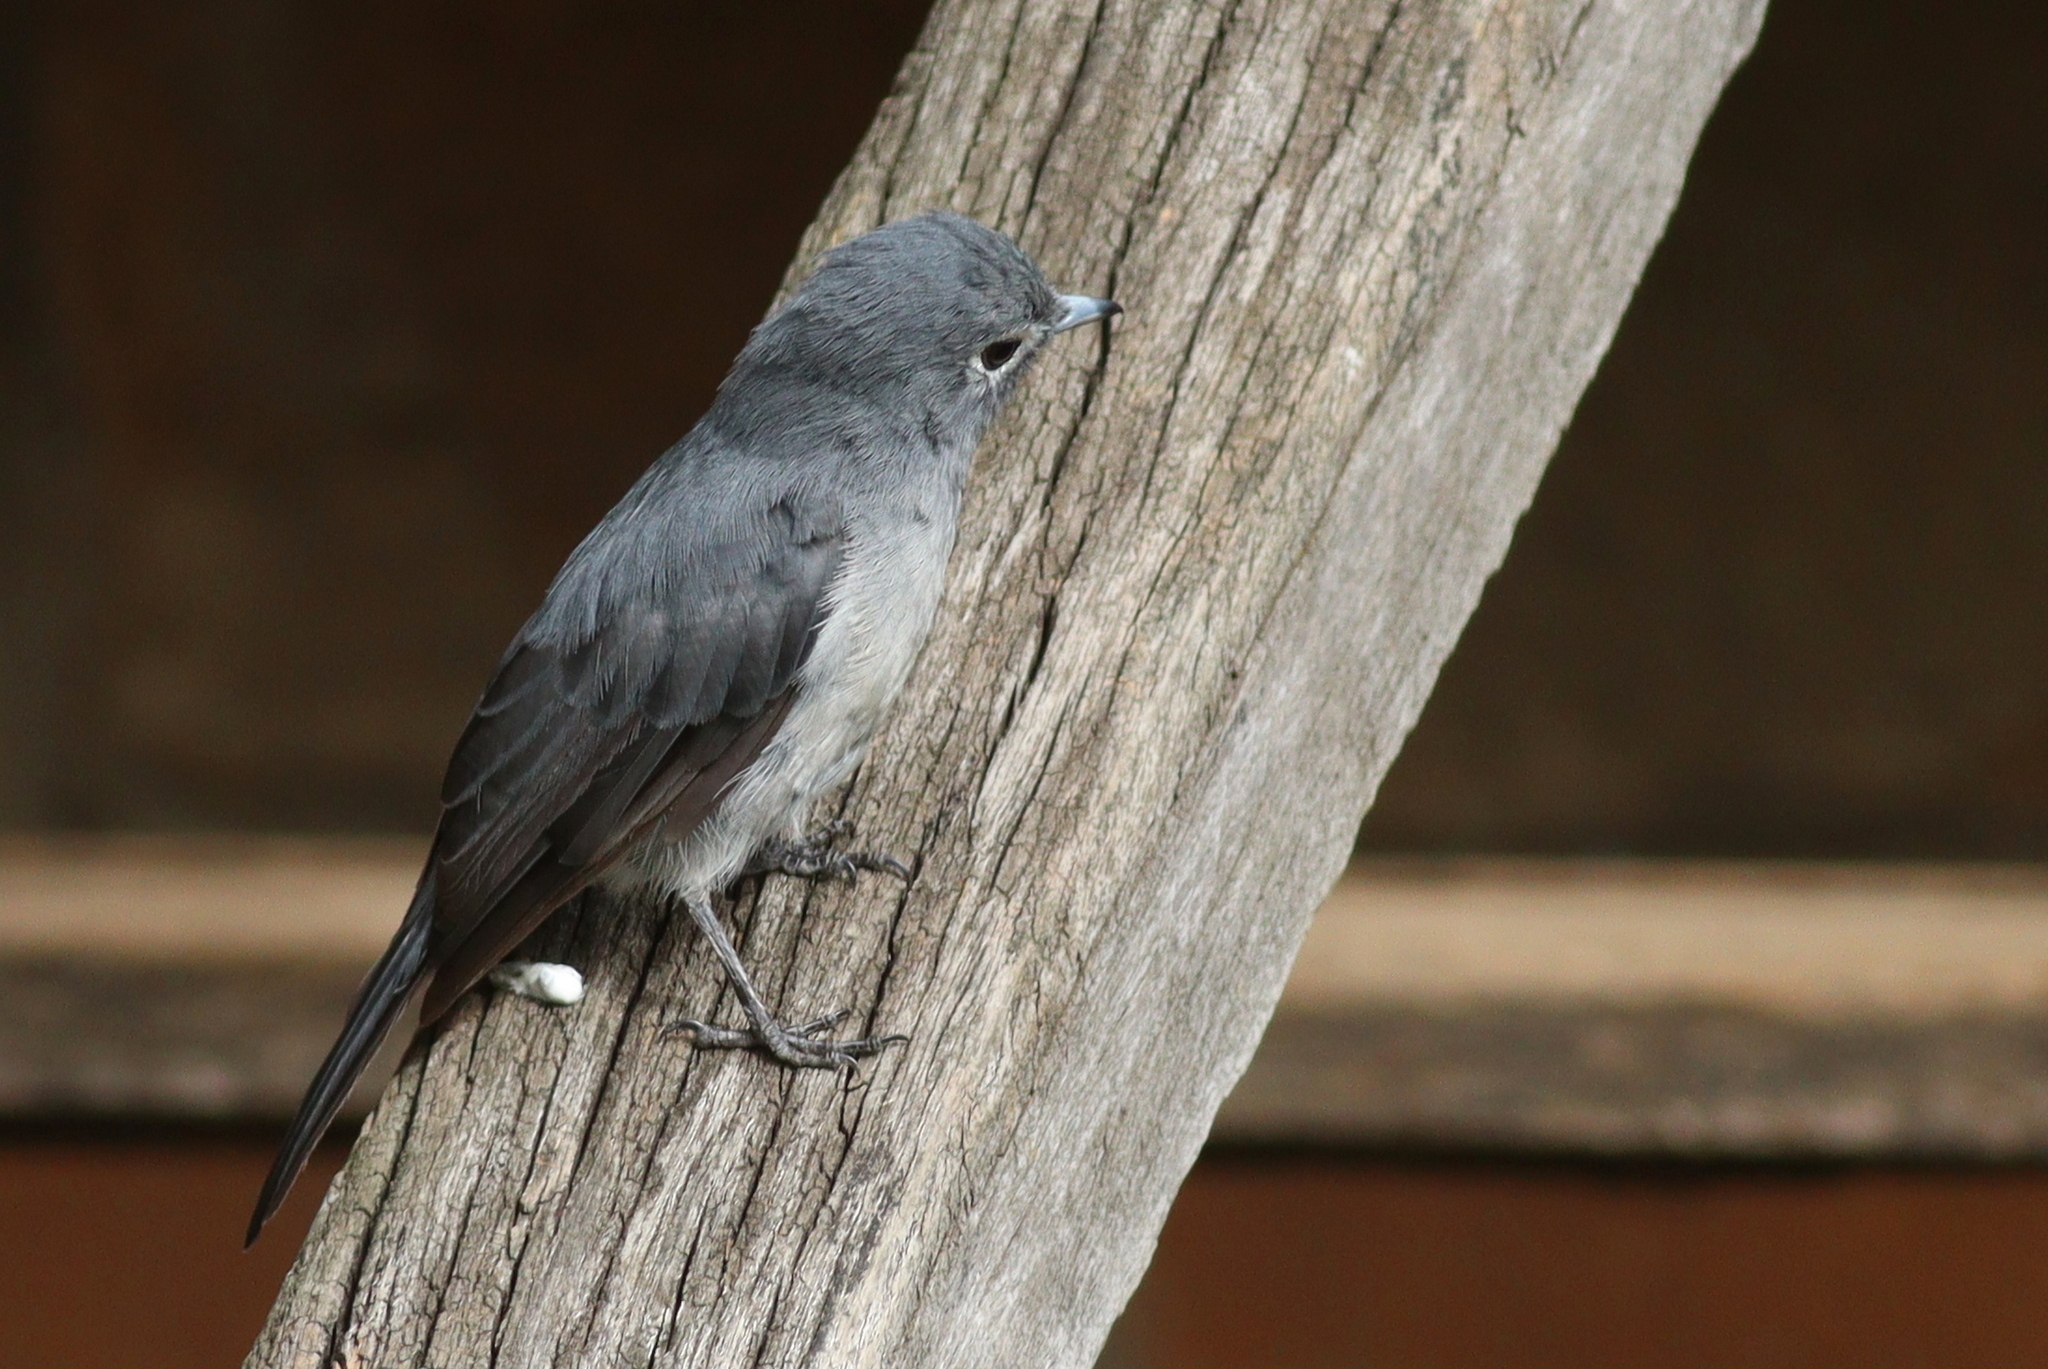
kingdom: Animalia
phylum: Chordata
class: Aves
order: Passeriformes
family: Muscicapidae
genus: Dioptrornis
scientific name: Dioptrornis fischeri
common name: White-eyed slaty flycatcher
